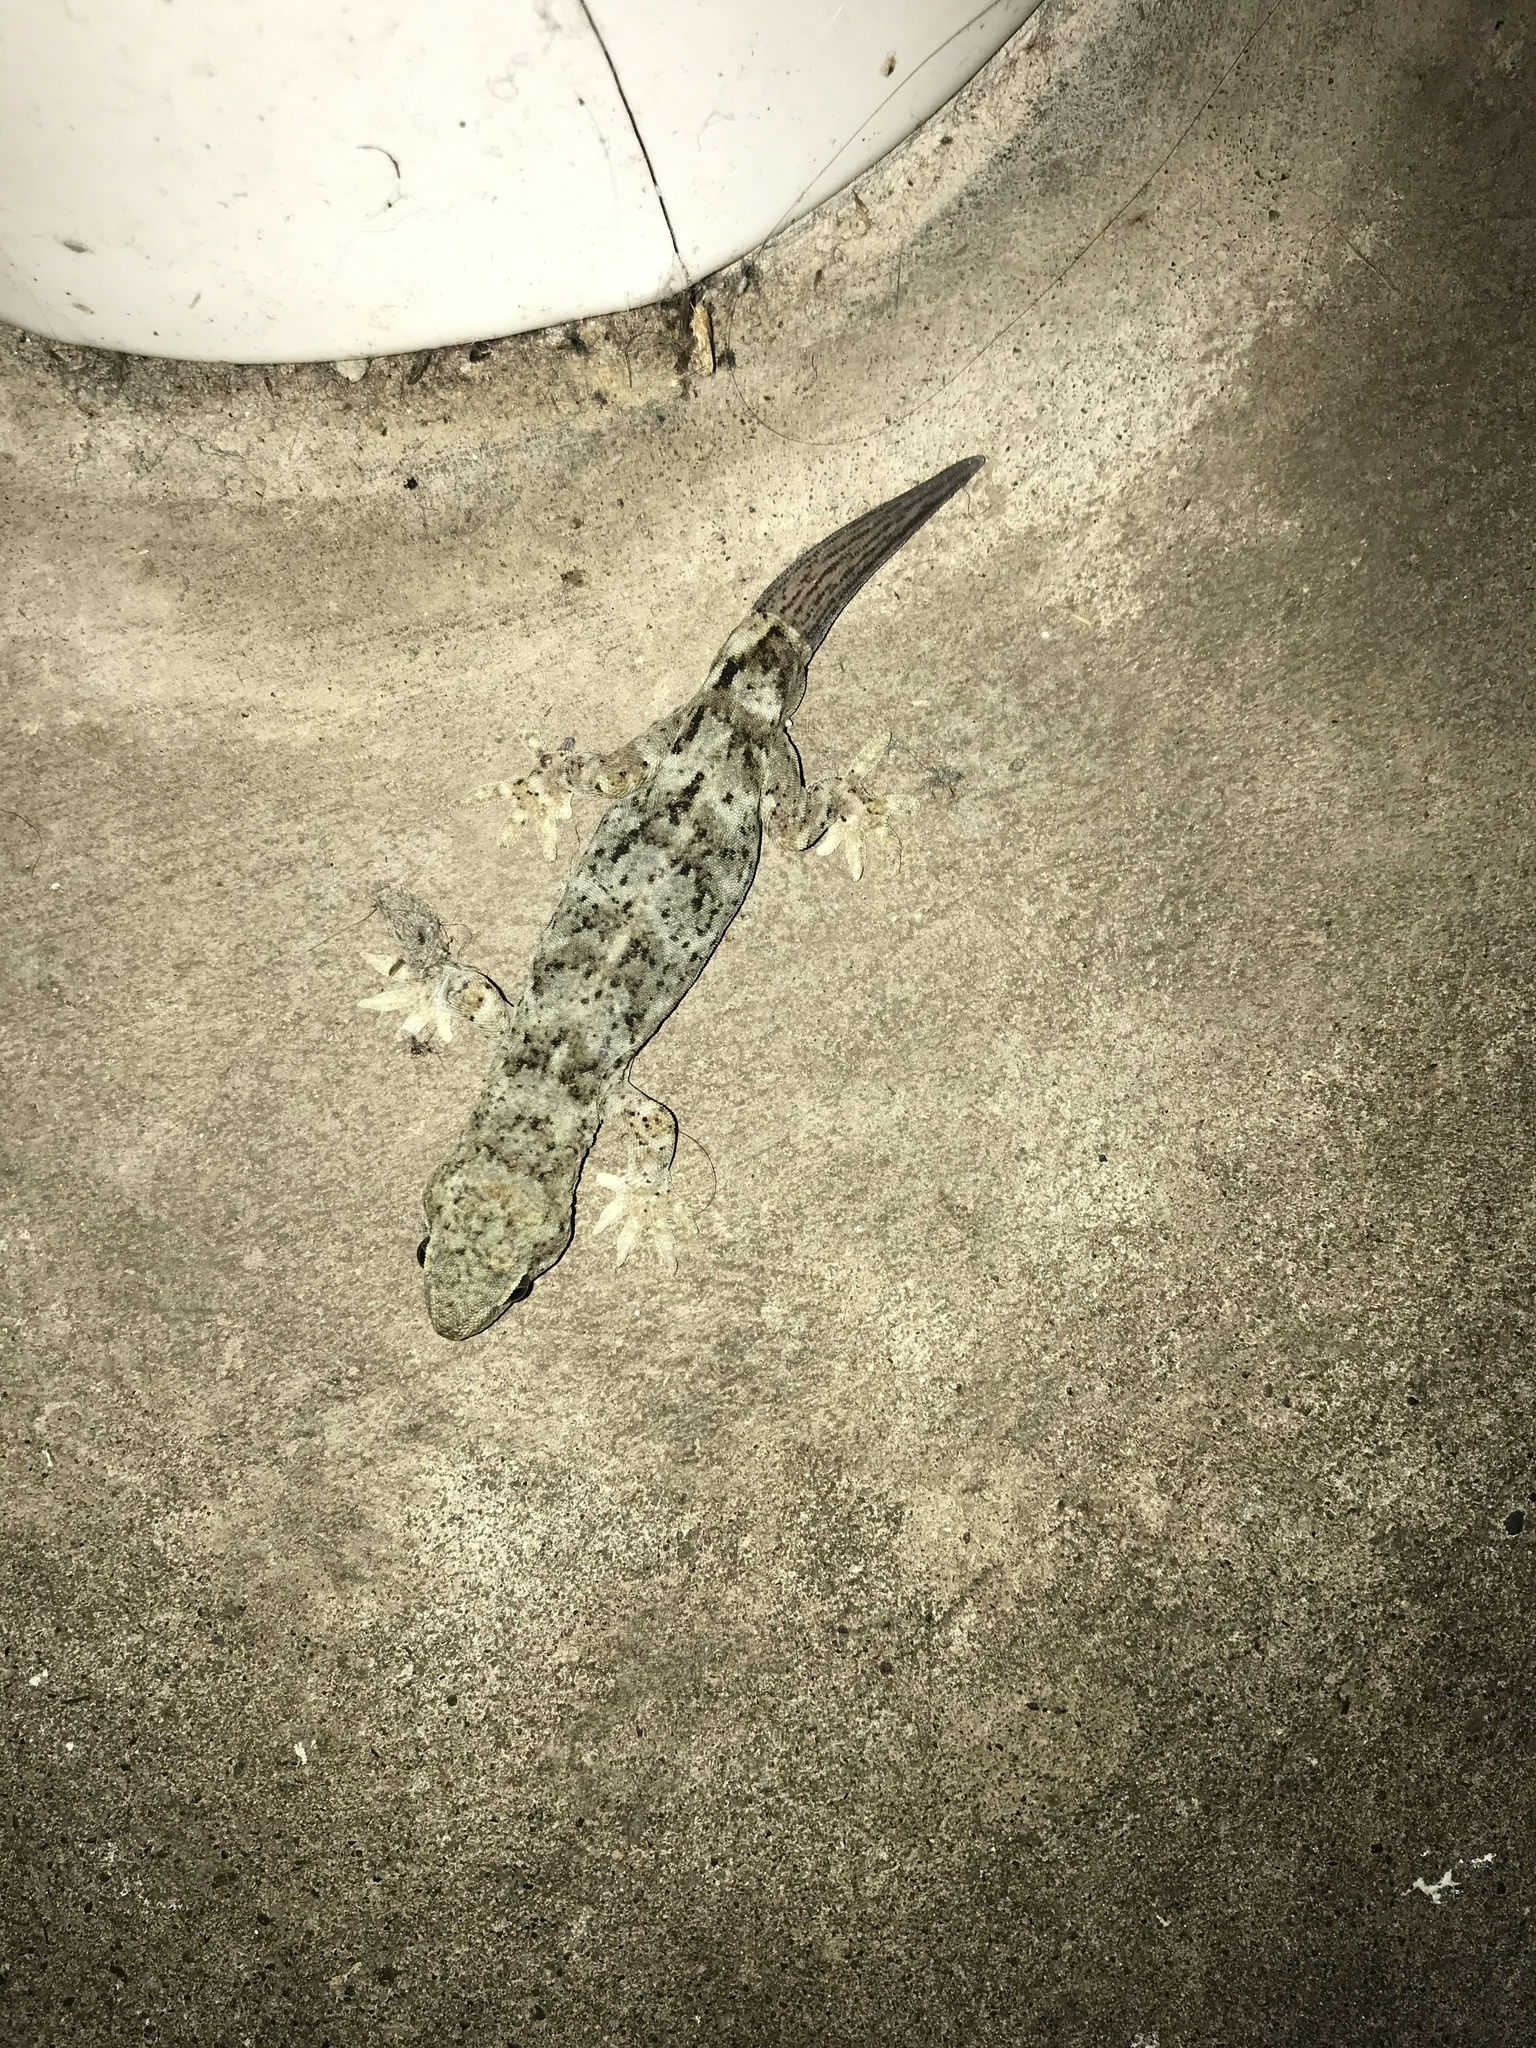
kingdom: Animalia
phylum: Chordata
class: Squamata
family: Diplodactylidae
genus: Woodworthia
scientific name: Woodworthia
